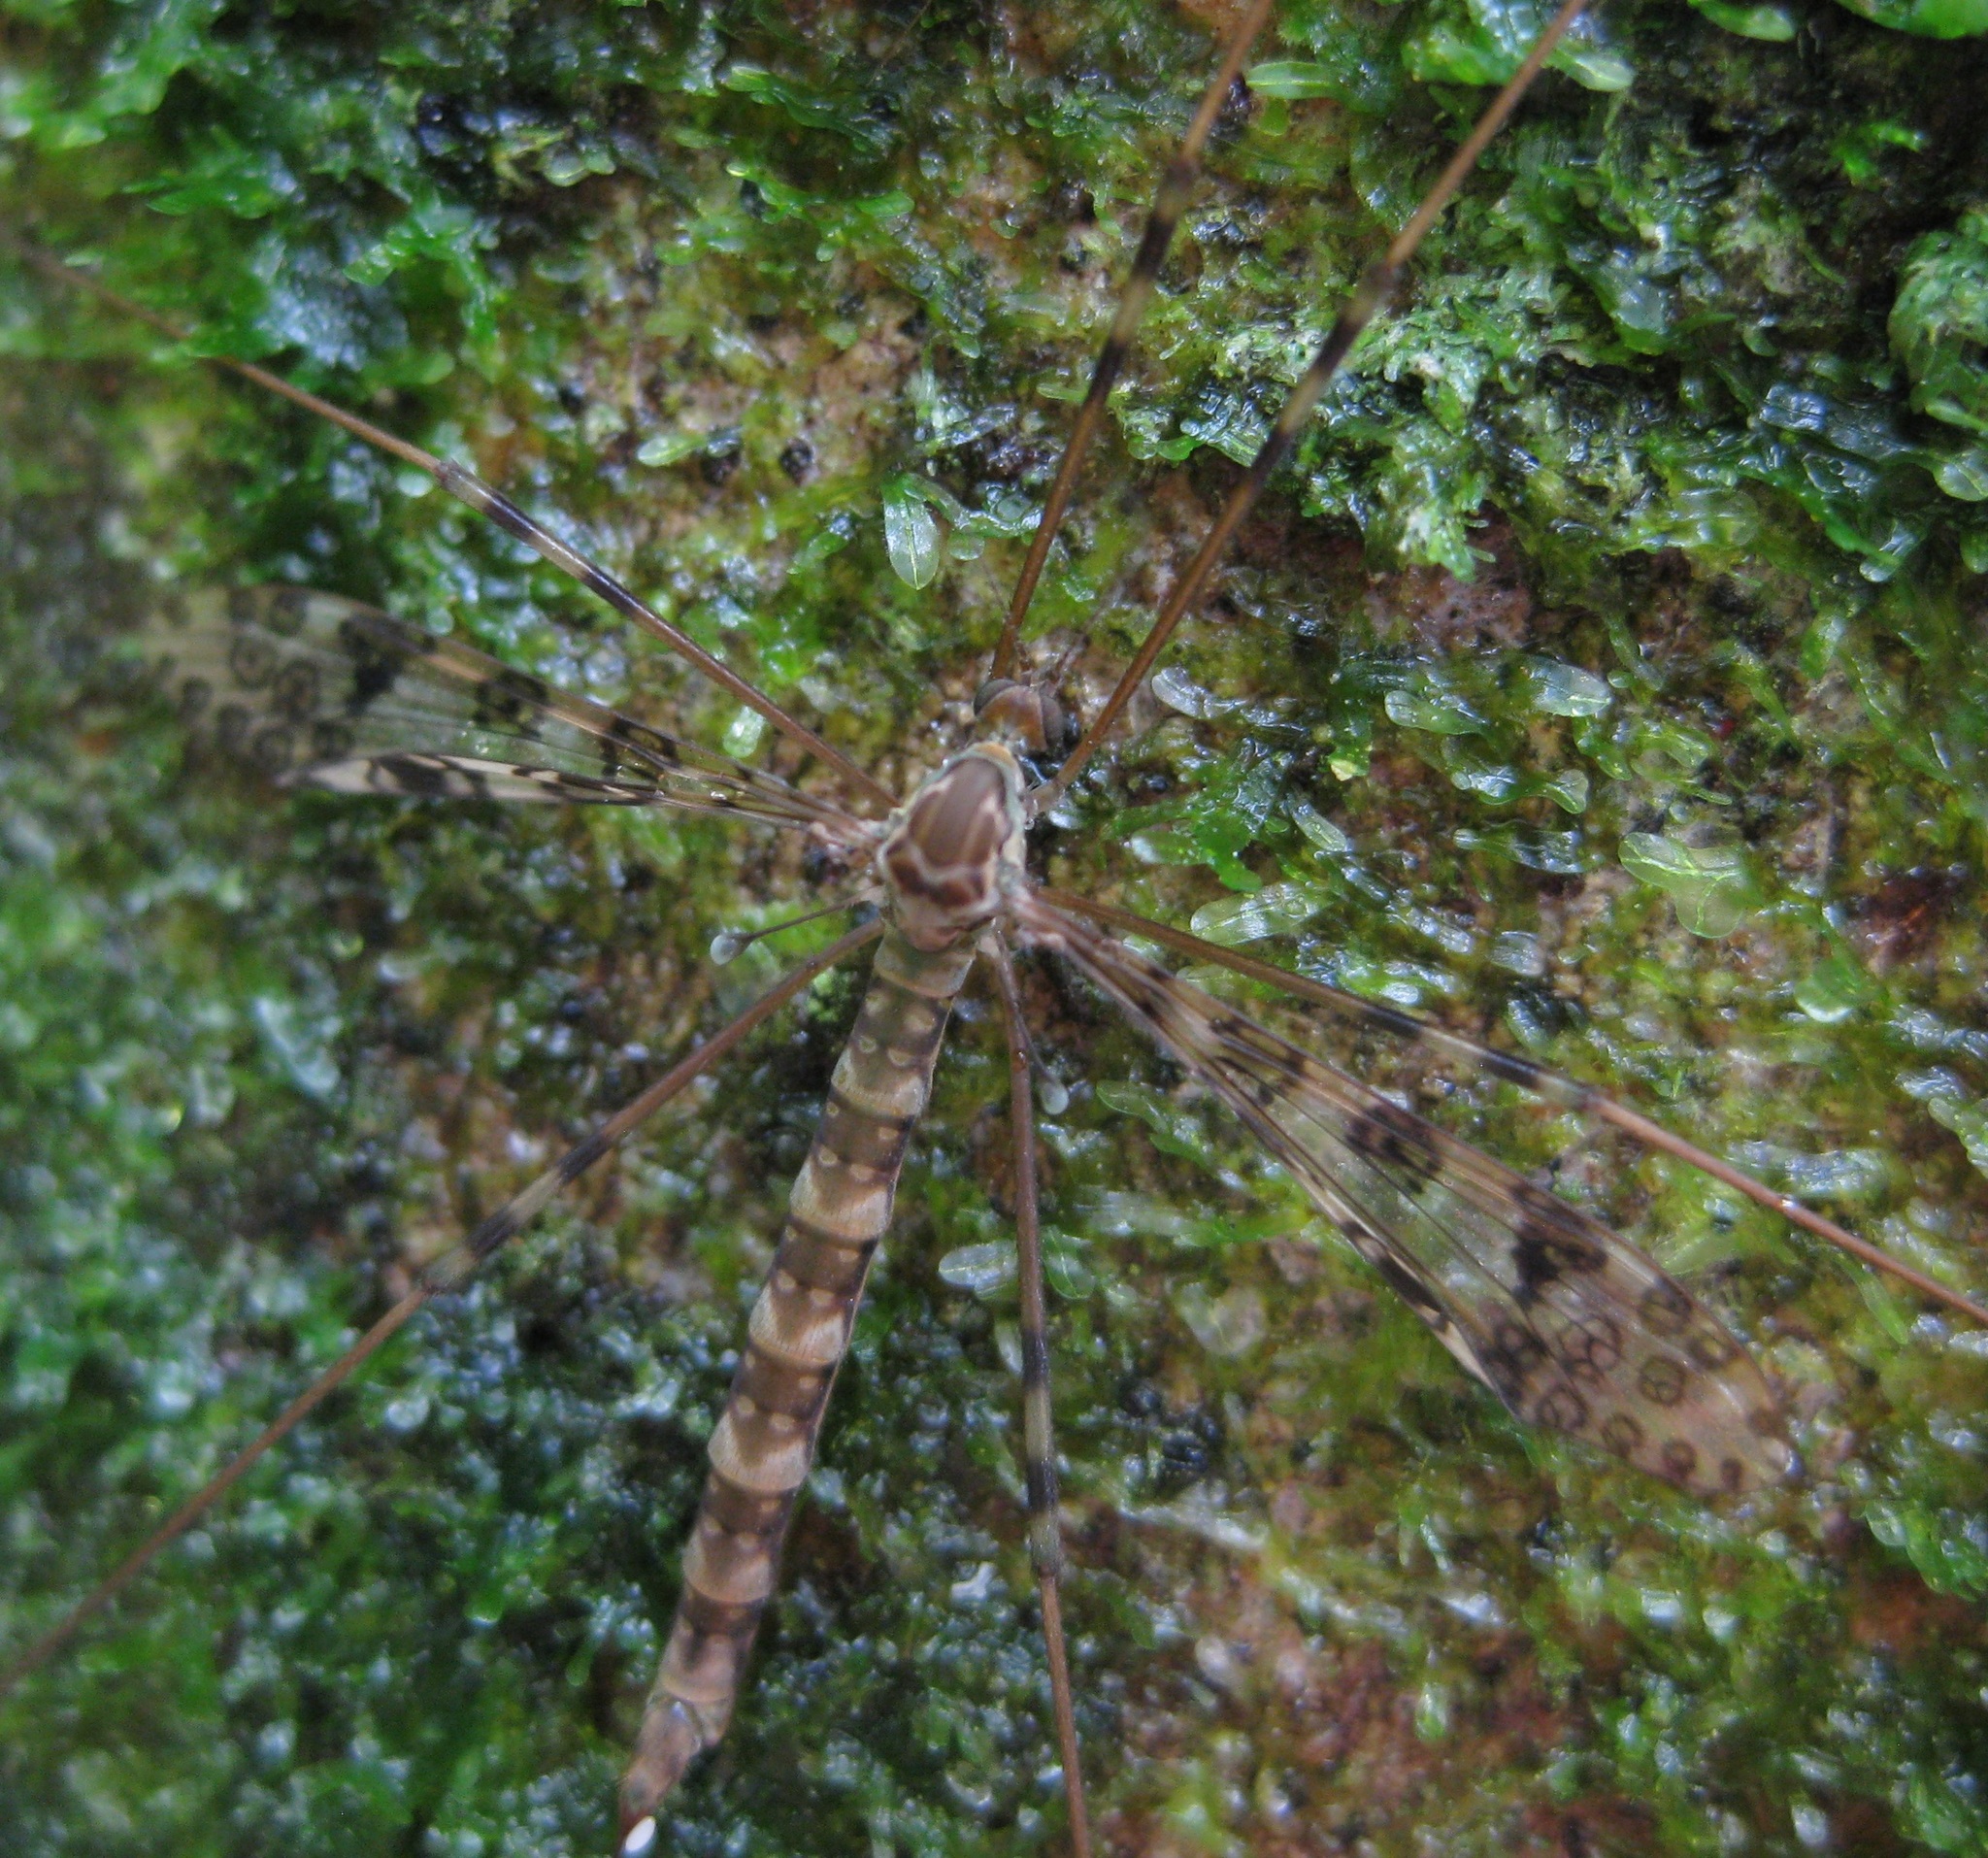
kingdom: Animalia
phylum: Arthropoda
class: Insecta
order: Diptera
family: Limoniidae
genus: Austrolimnophila
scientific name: Austrolimnophila argus
